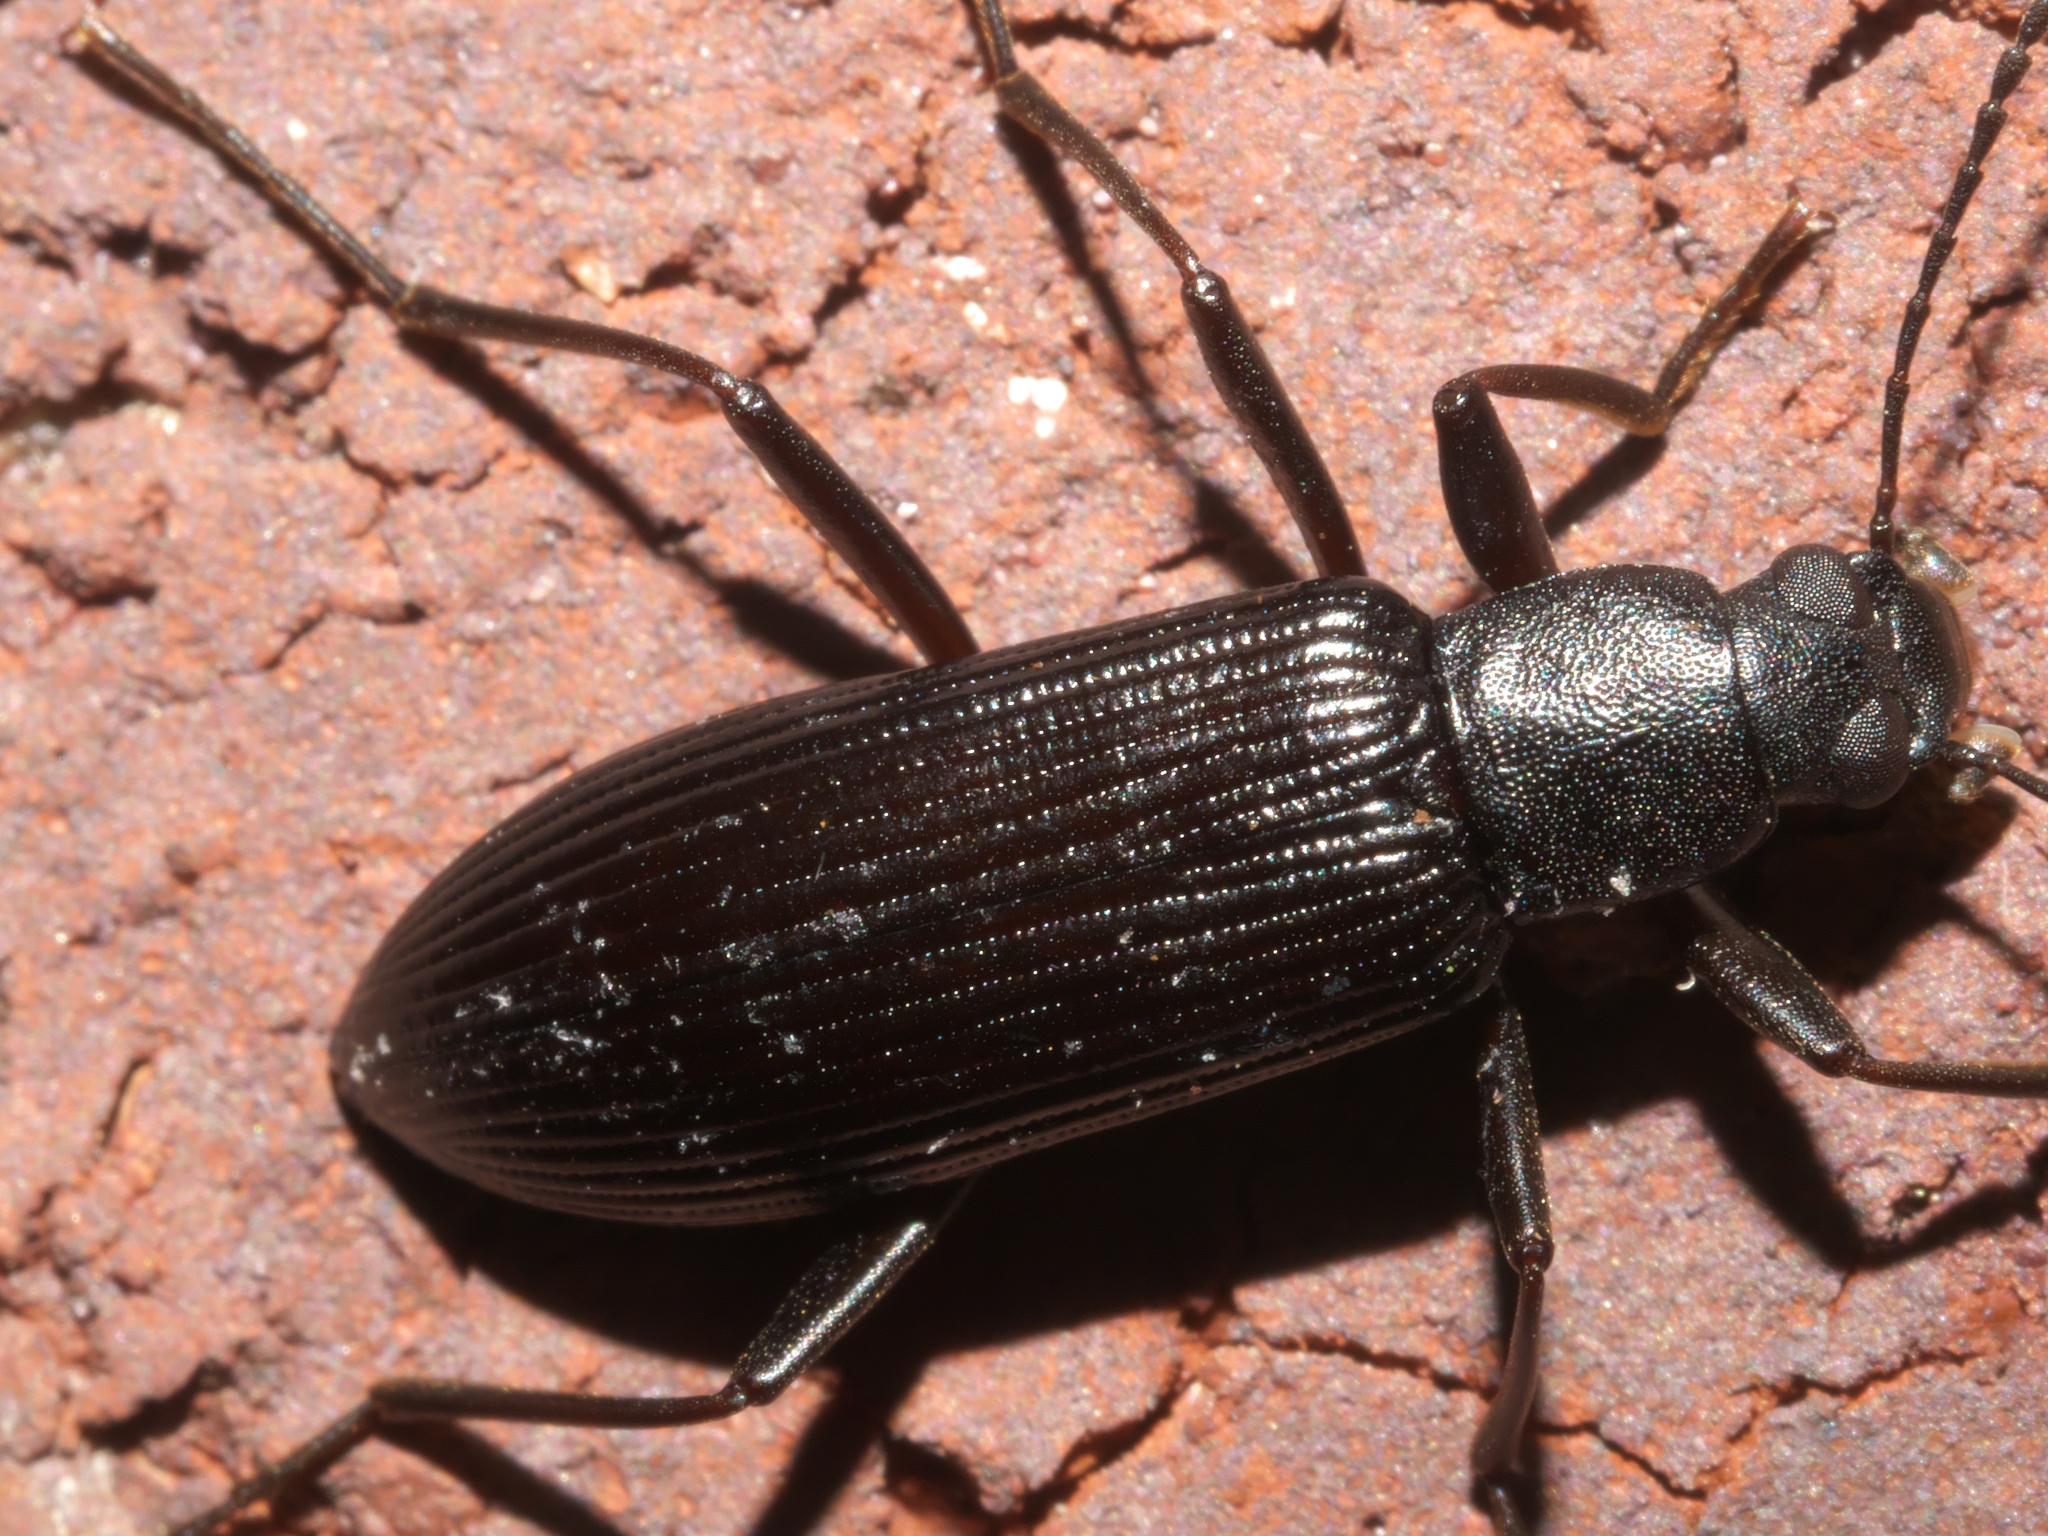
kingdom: Animalia
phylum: Arthropoda
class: Insecta
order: Coleoptera
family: Tenebrionidae
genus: Strongylium
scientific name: Strongylium tenuicolle
